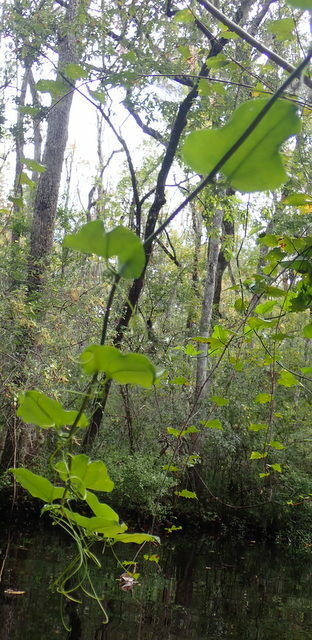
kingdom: Plantae
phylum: Tracheophyta
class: Liliopsida
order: Liliales
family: Smilacaceae
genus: Smilax
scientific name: Smilax tamnoides
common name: Hellfetter
